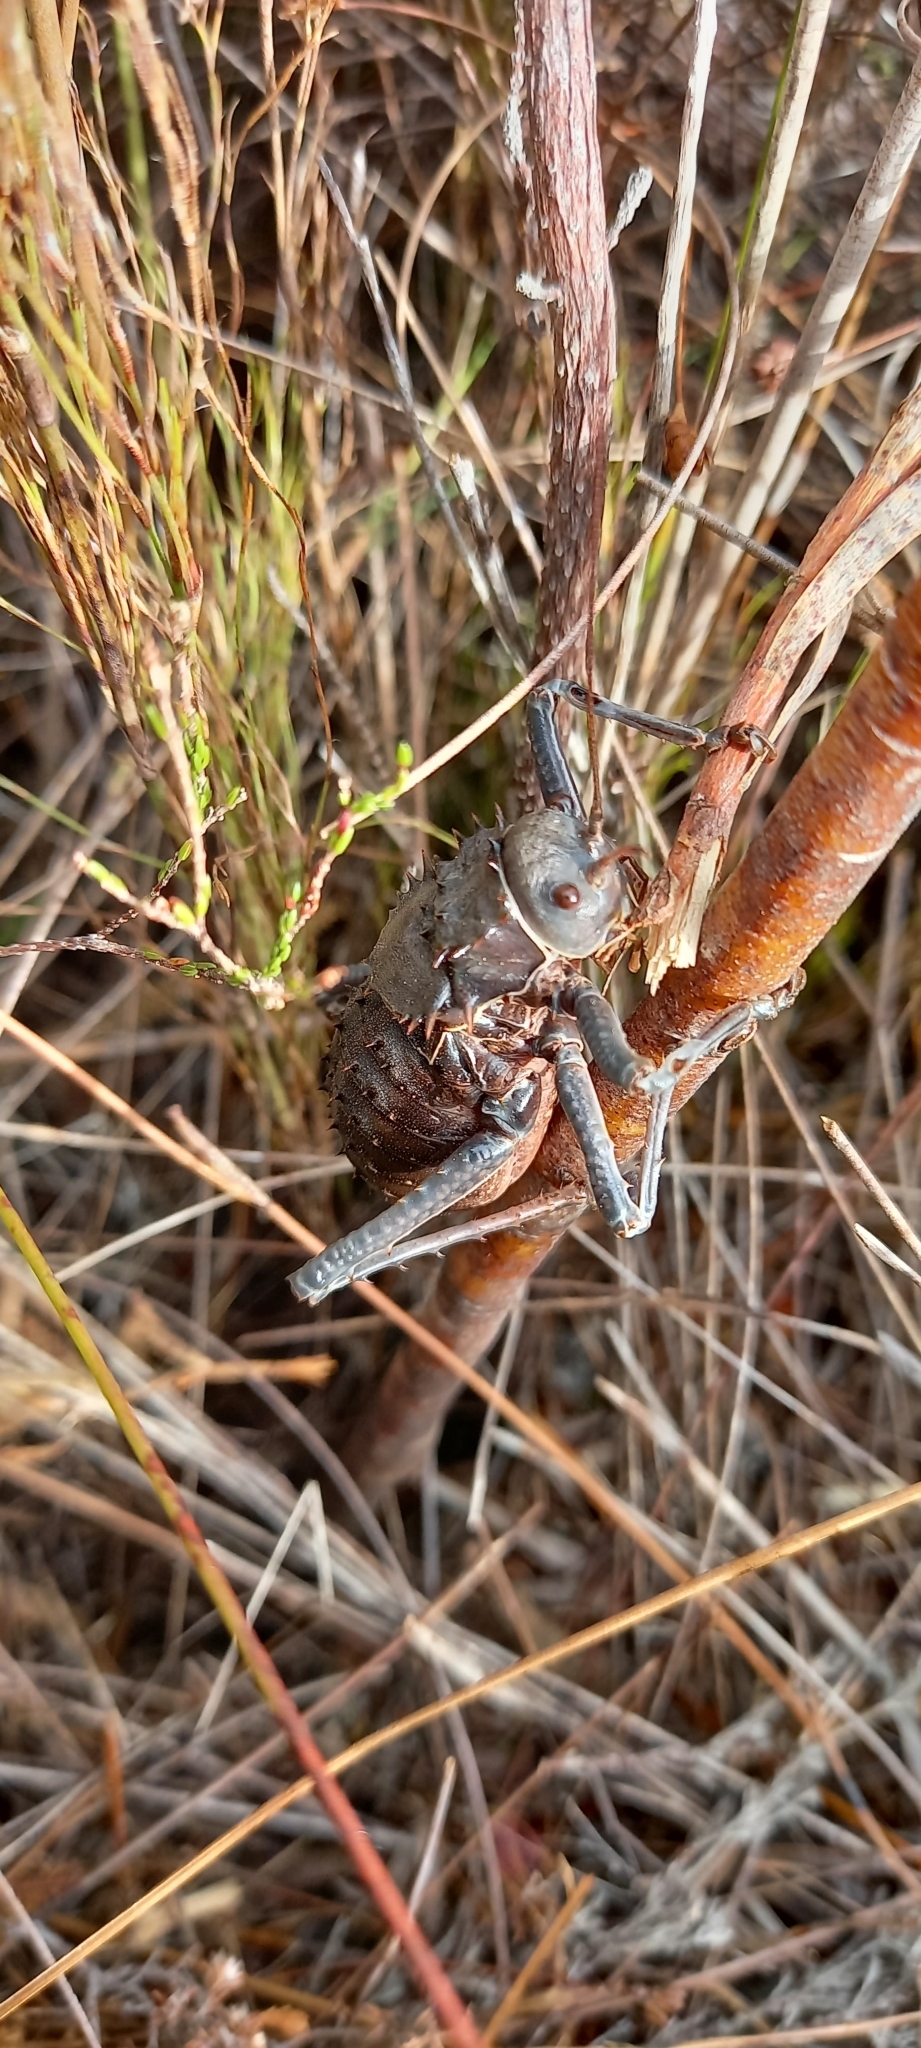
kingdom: Animalia
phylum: Arthropoda
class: Insecta
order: Orthoptera
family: Tettigoniidae
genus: Hetrodes
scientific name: Hetrodes pupus
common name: Koringkriek
